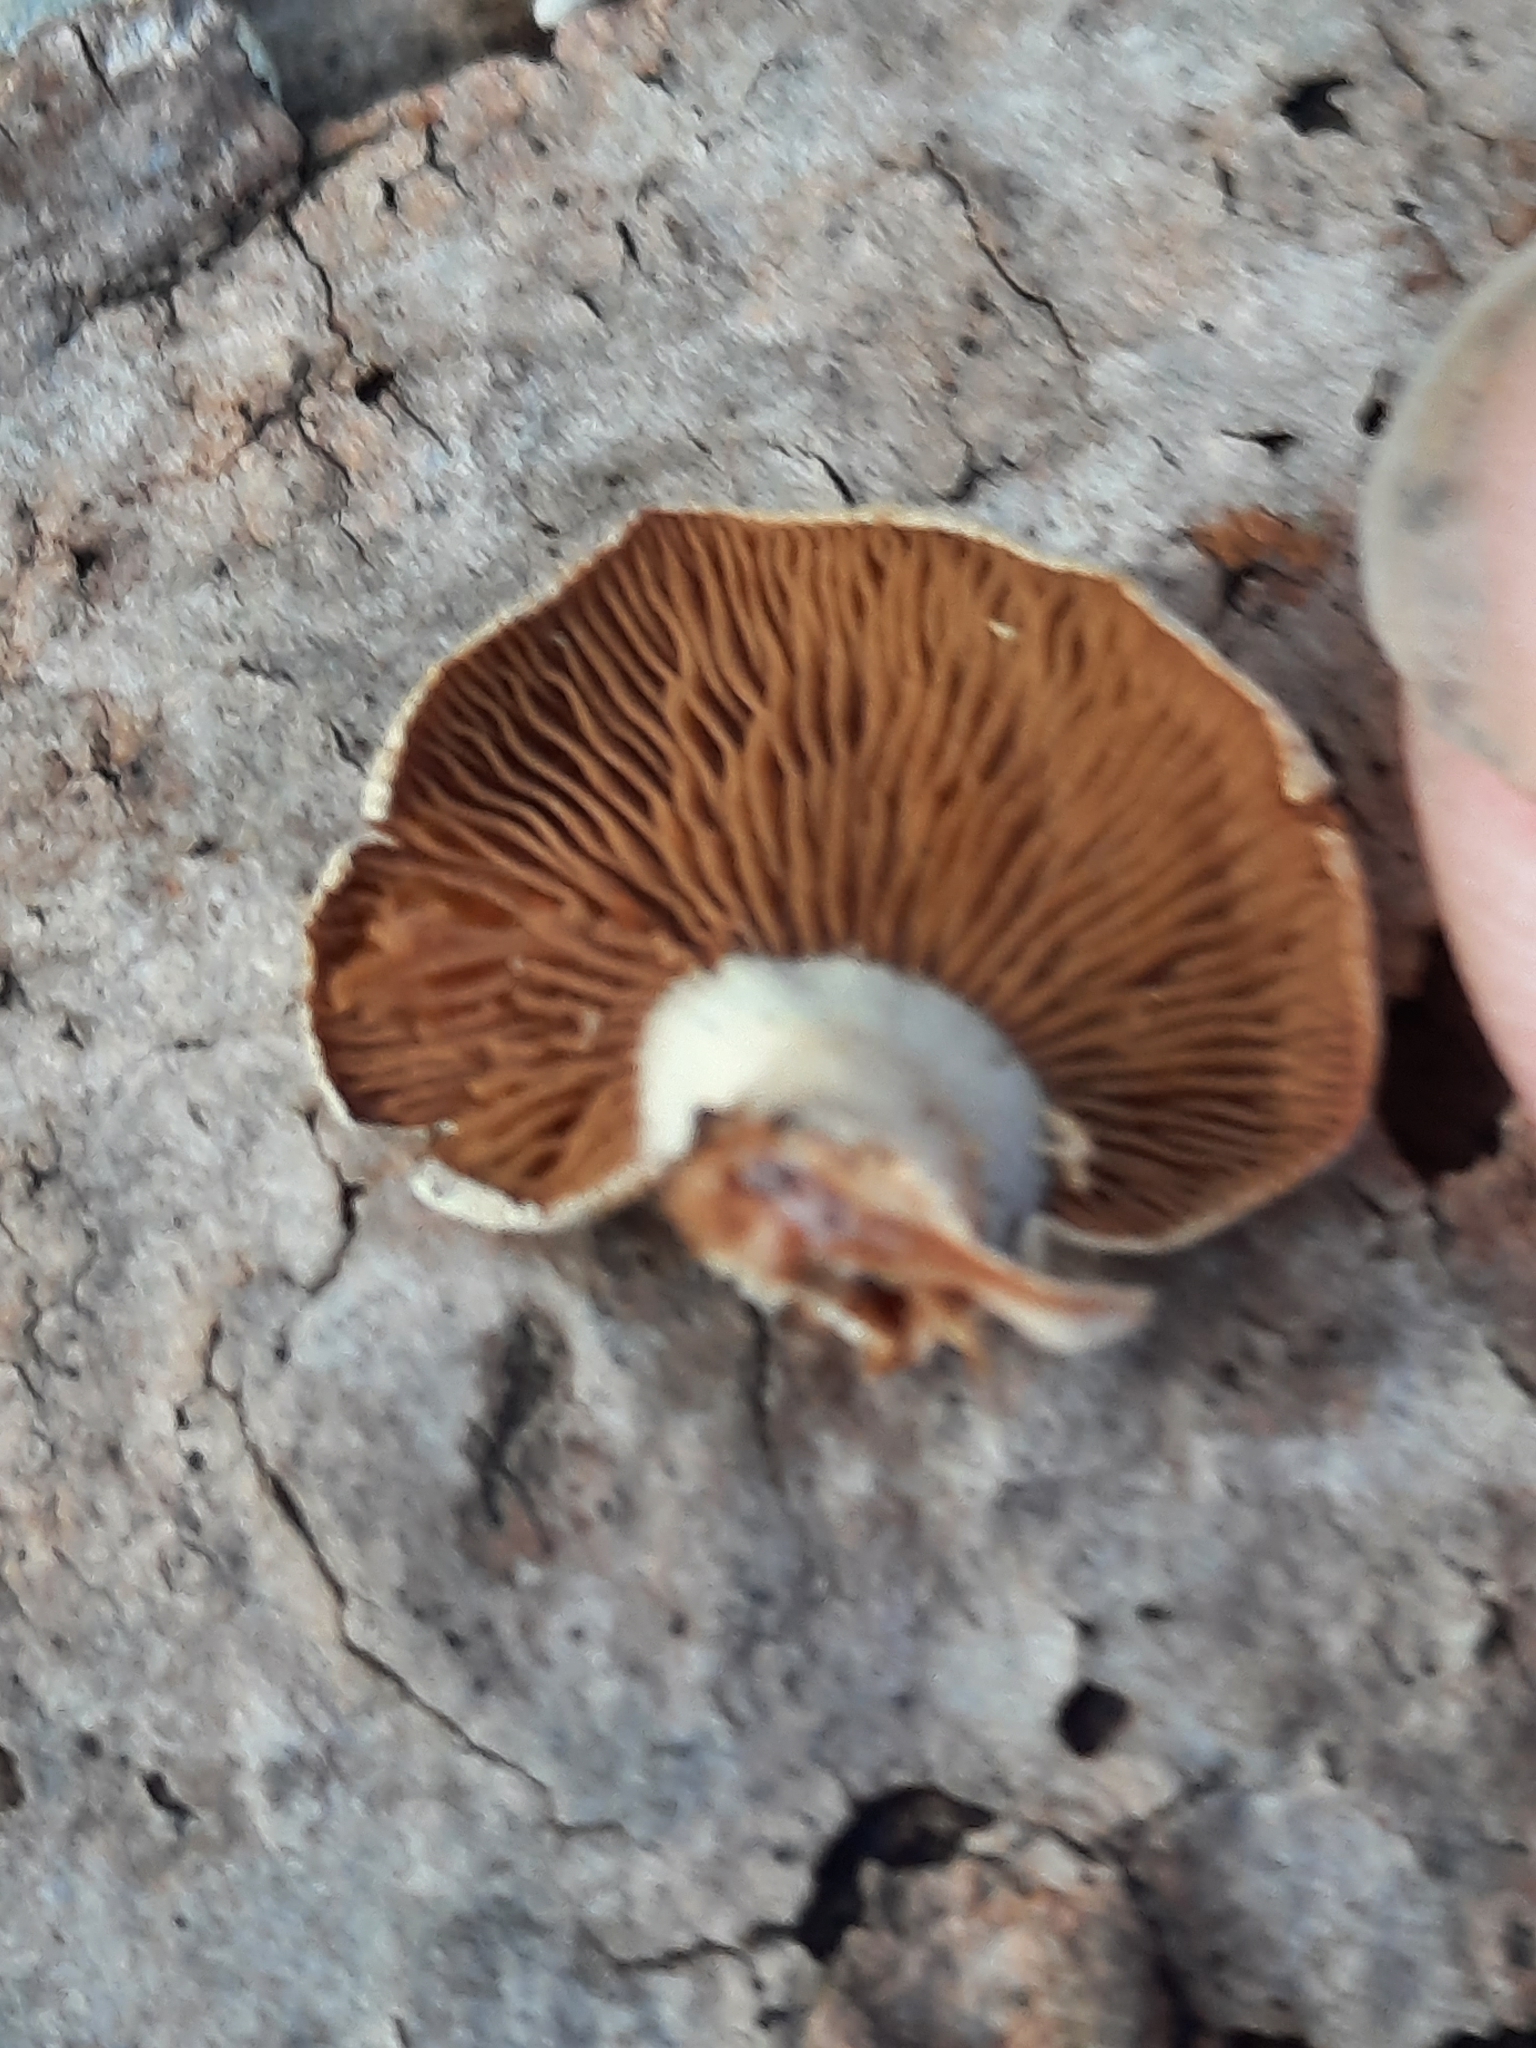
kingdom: Fungi
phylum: Basidiomycota
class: Agaricomycetes
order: Agaricales
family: Mycenaceae
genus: Panellus
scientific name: Panellus stipticus
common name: Bitter oysterling
